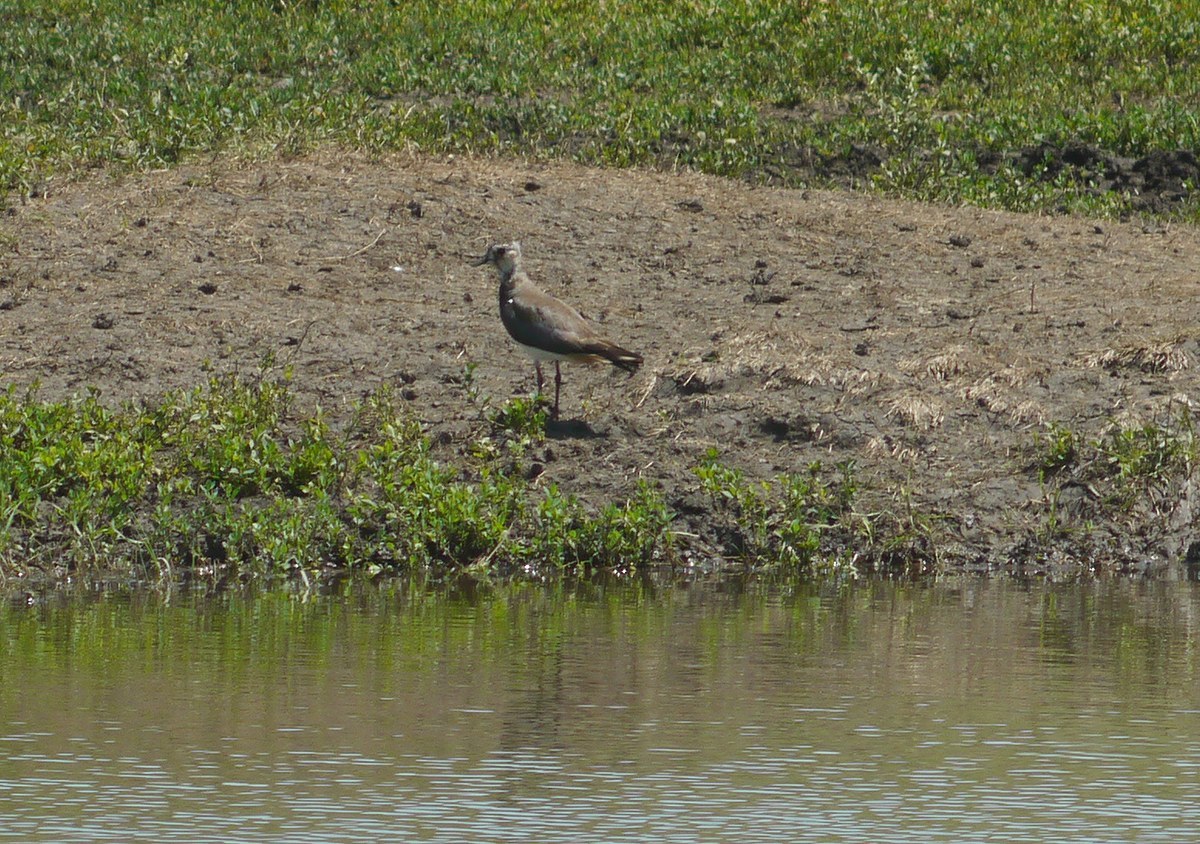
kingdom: Animalia
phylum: Chordata
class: Aves
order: Charadriiformes
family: Charadriidae
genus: Vanellus
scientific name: Vanellus vanellus
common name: Northern lapwing
